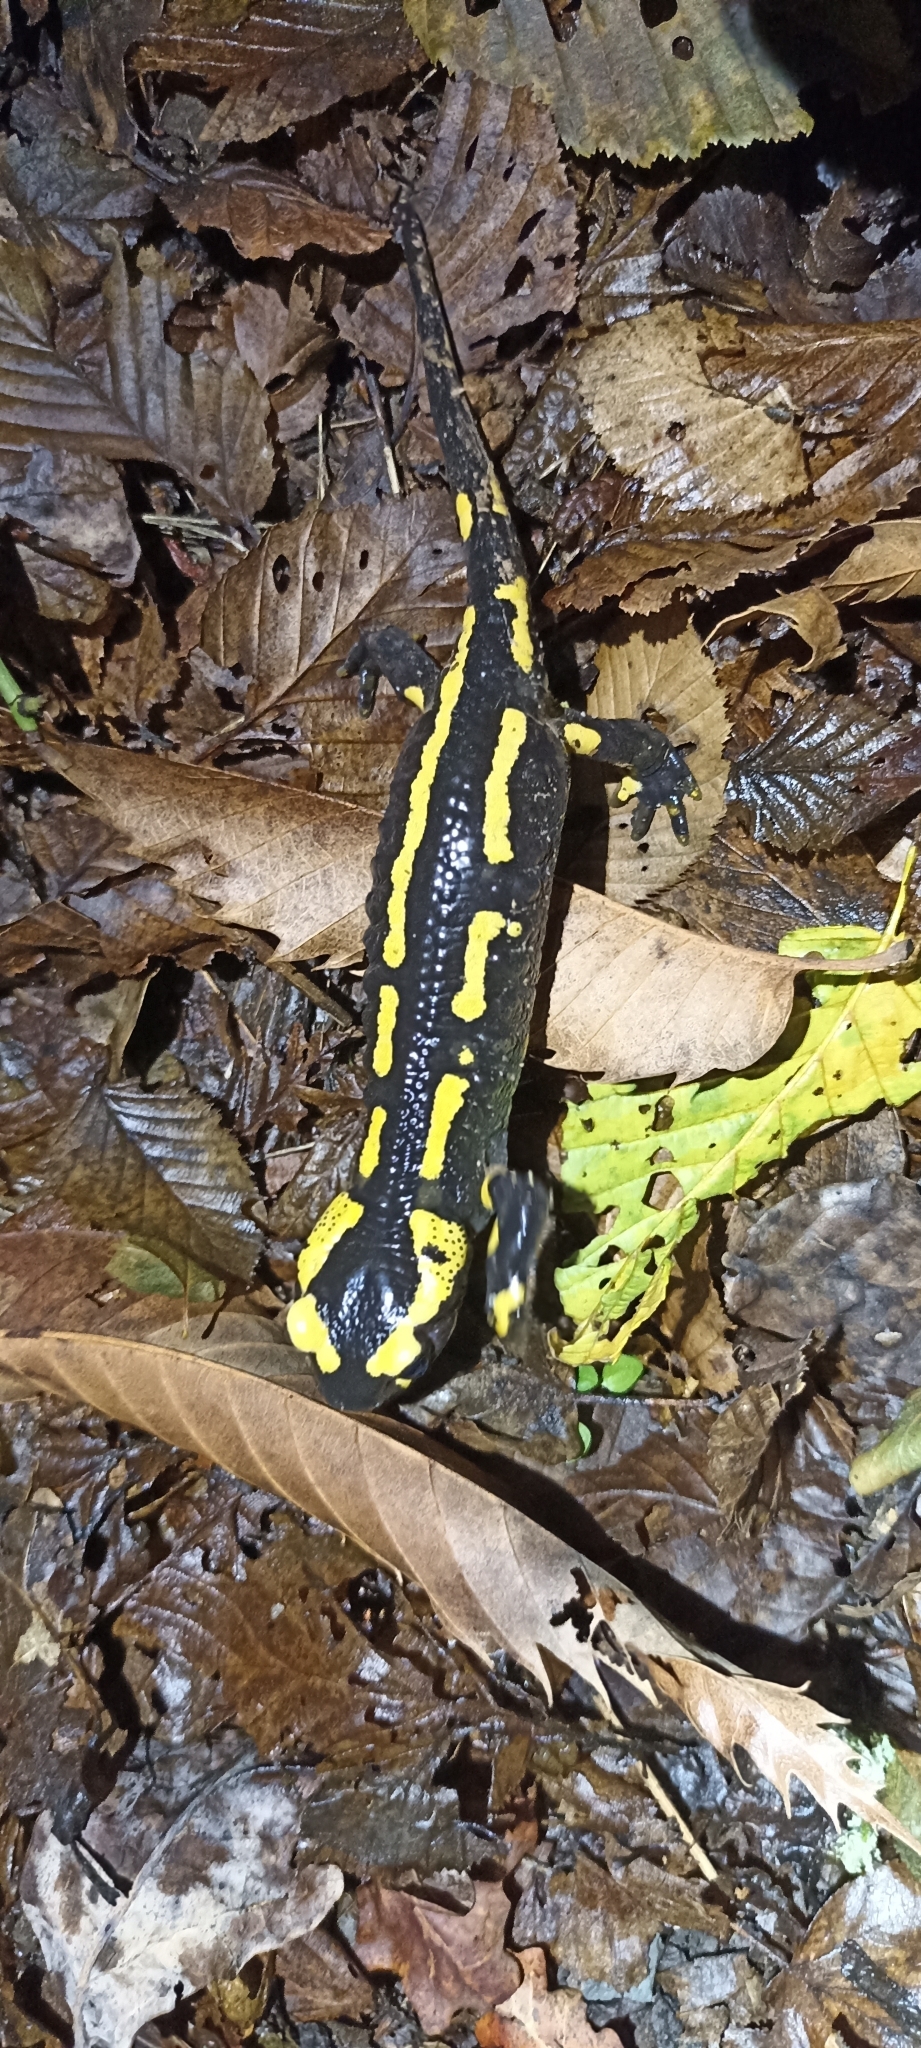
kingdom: Animalia
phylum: Chordata
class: Amphibia
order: Caudata
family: Salamandridae
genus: Salamandra
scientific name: Salamandra salamandra
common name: Fire salamander
